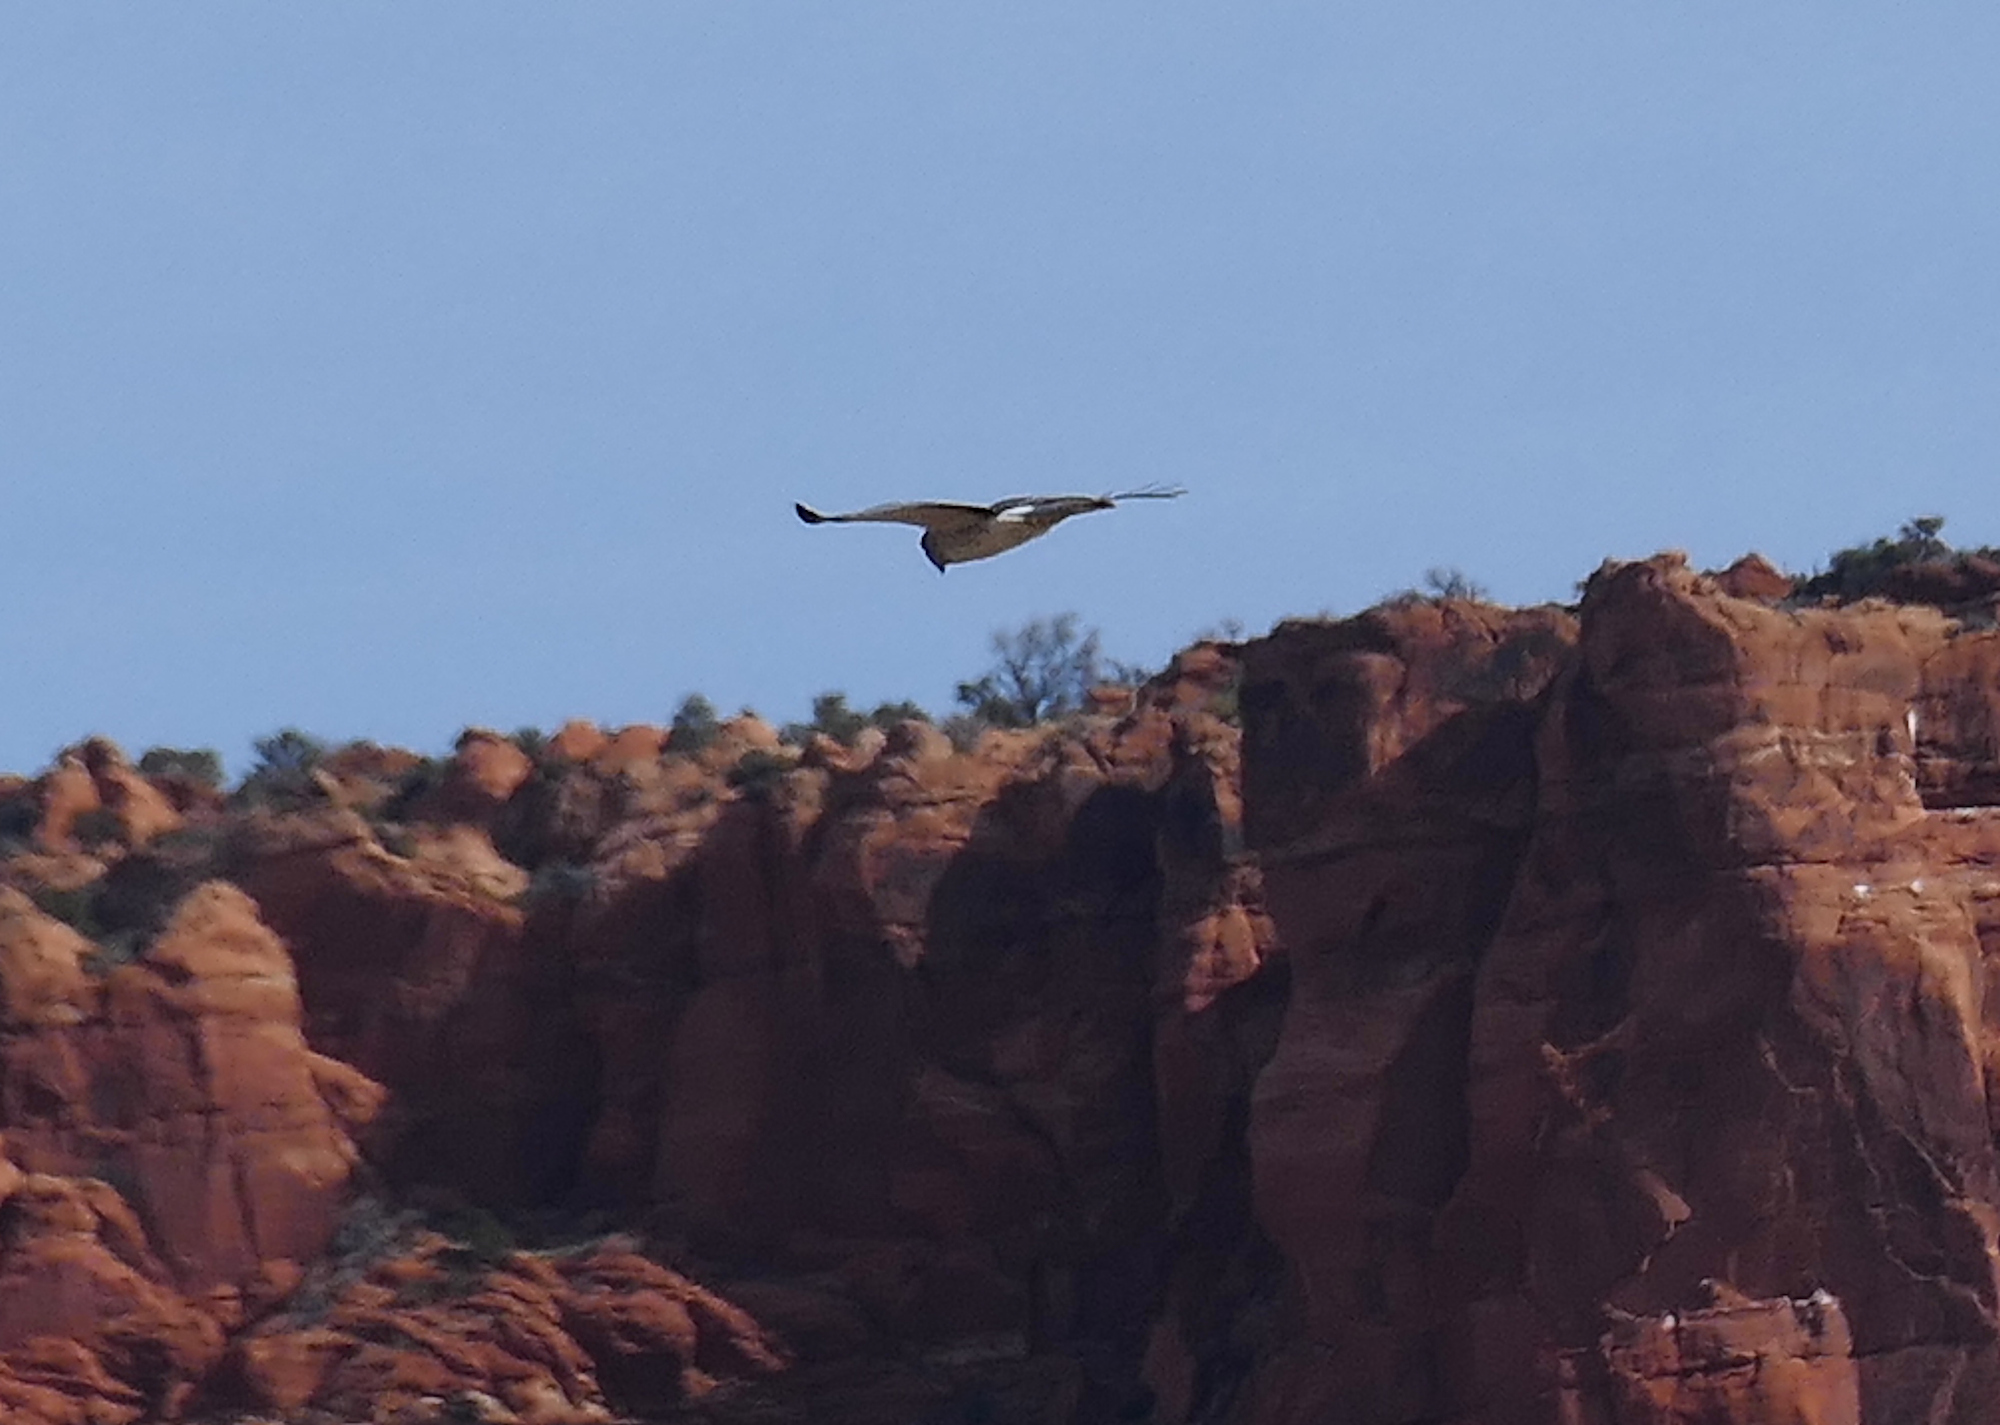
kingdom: Animalia
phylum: Chordata
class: Aves
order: Accipitriformes
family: Accipitridae
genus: Circus
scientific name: Circus cyaneus
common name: Hen harrier
